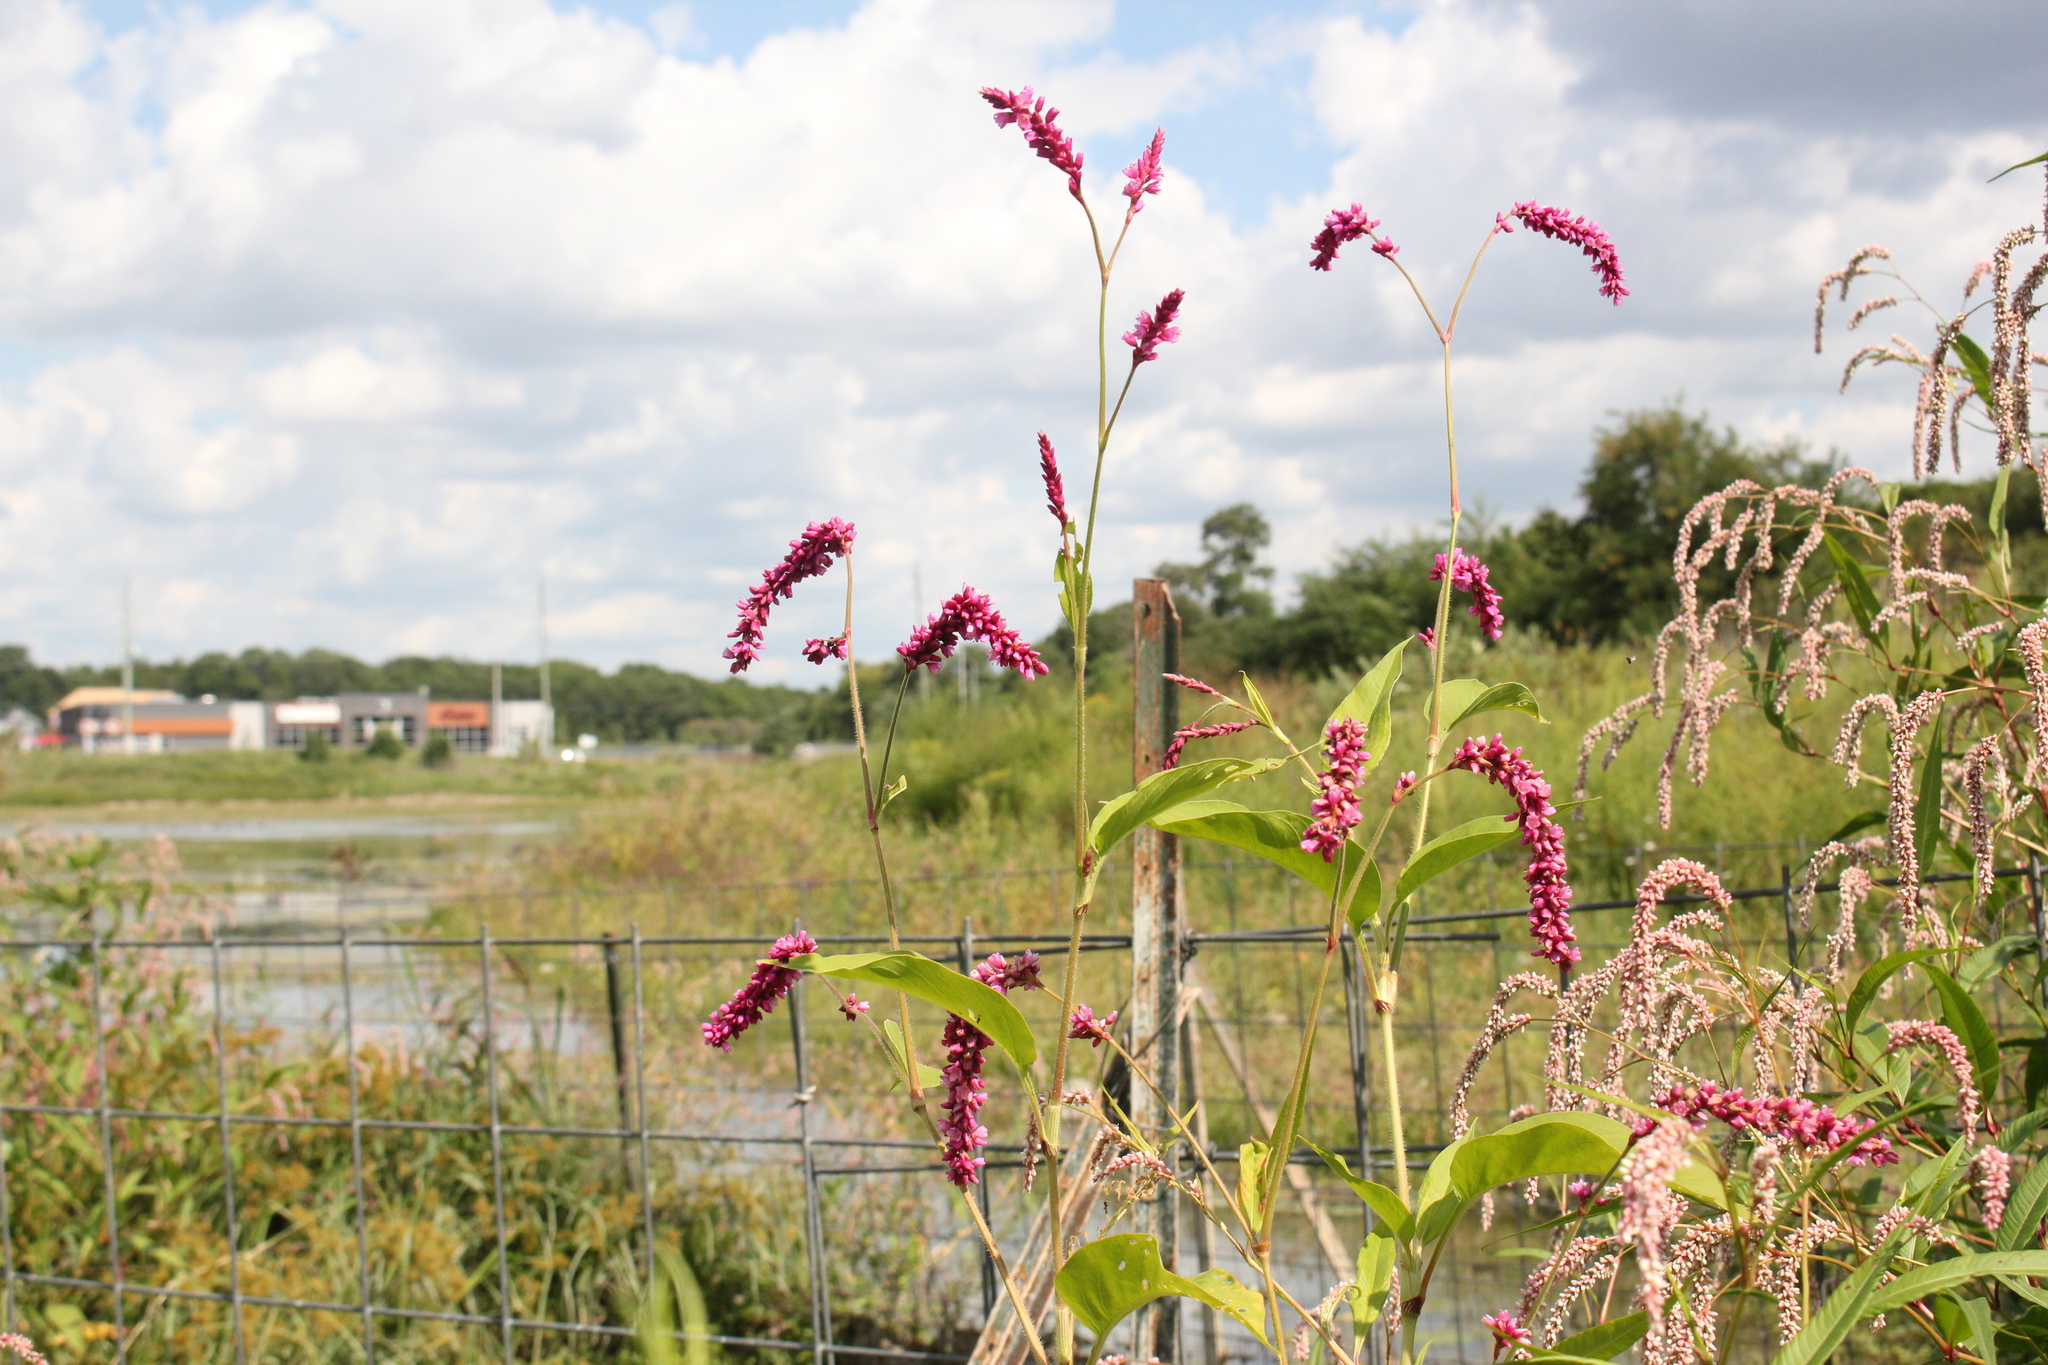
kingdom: Plantae
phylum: Tracheophyta
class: Magnoliopsida
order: Caryophyllales
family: Polygonaceae
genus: Persicaria
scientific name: Persicaria orientalis
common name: Kiss-me-over-the-garden-gate
